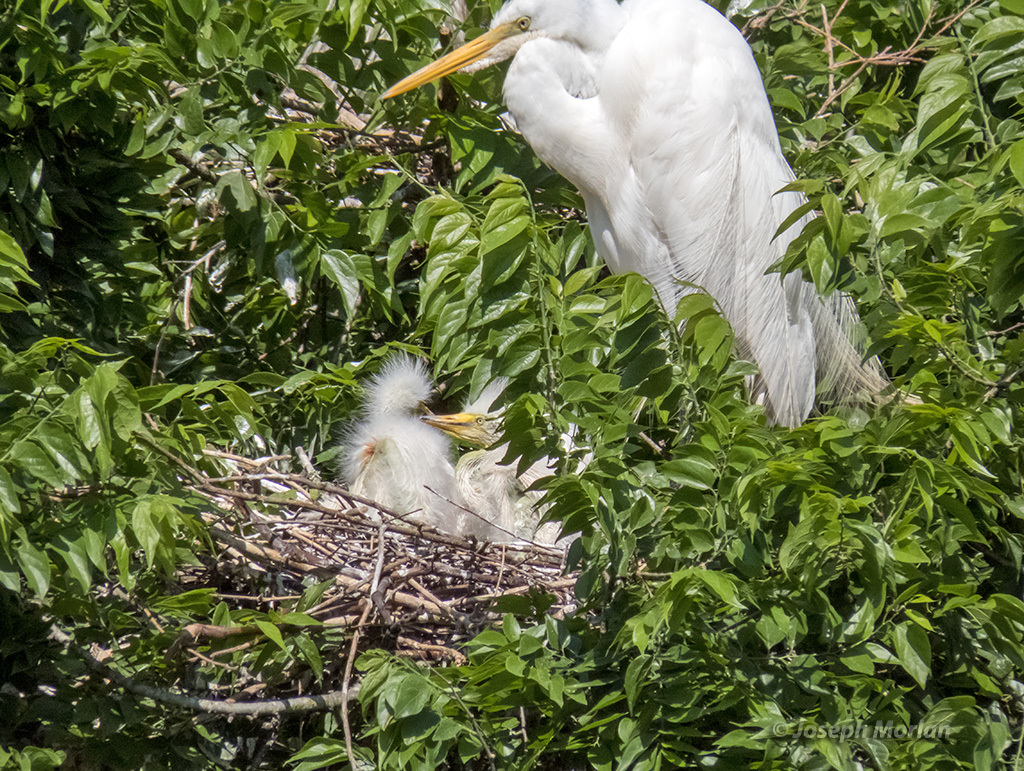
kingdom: Animalia
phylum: Chordata
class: Aves
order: Pelecaniformes
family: Ardeidae
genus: Ardea
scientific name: Ardea alba
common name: Great egret
